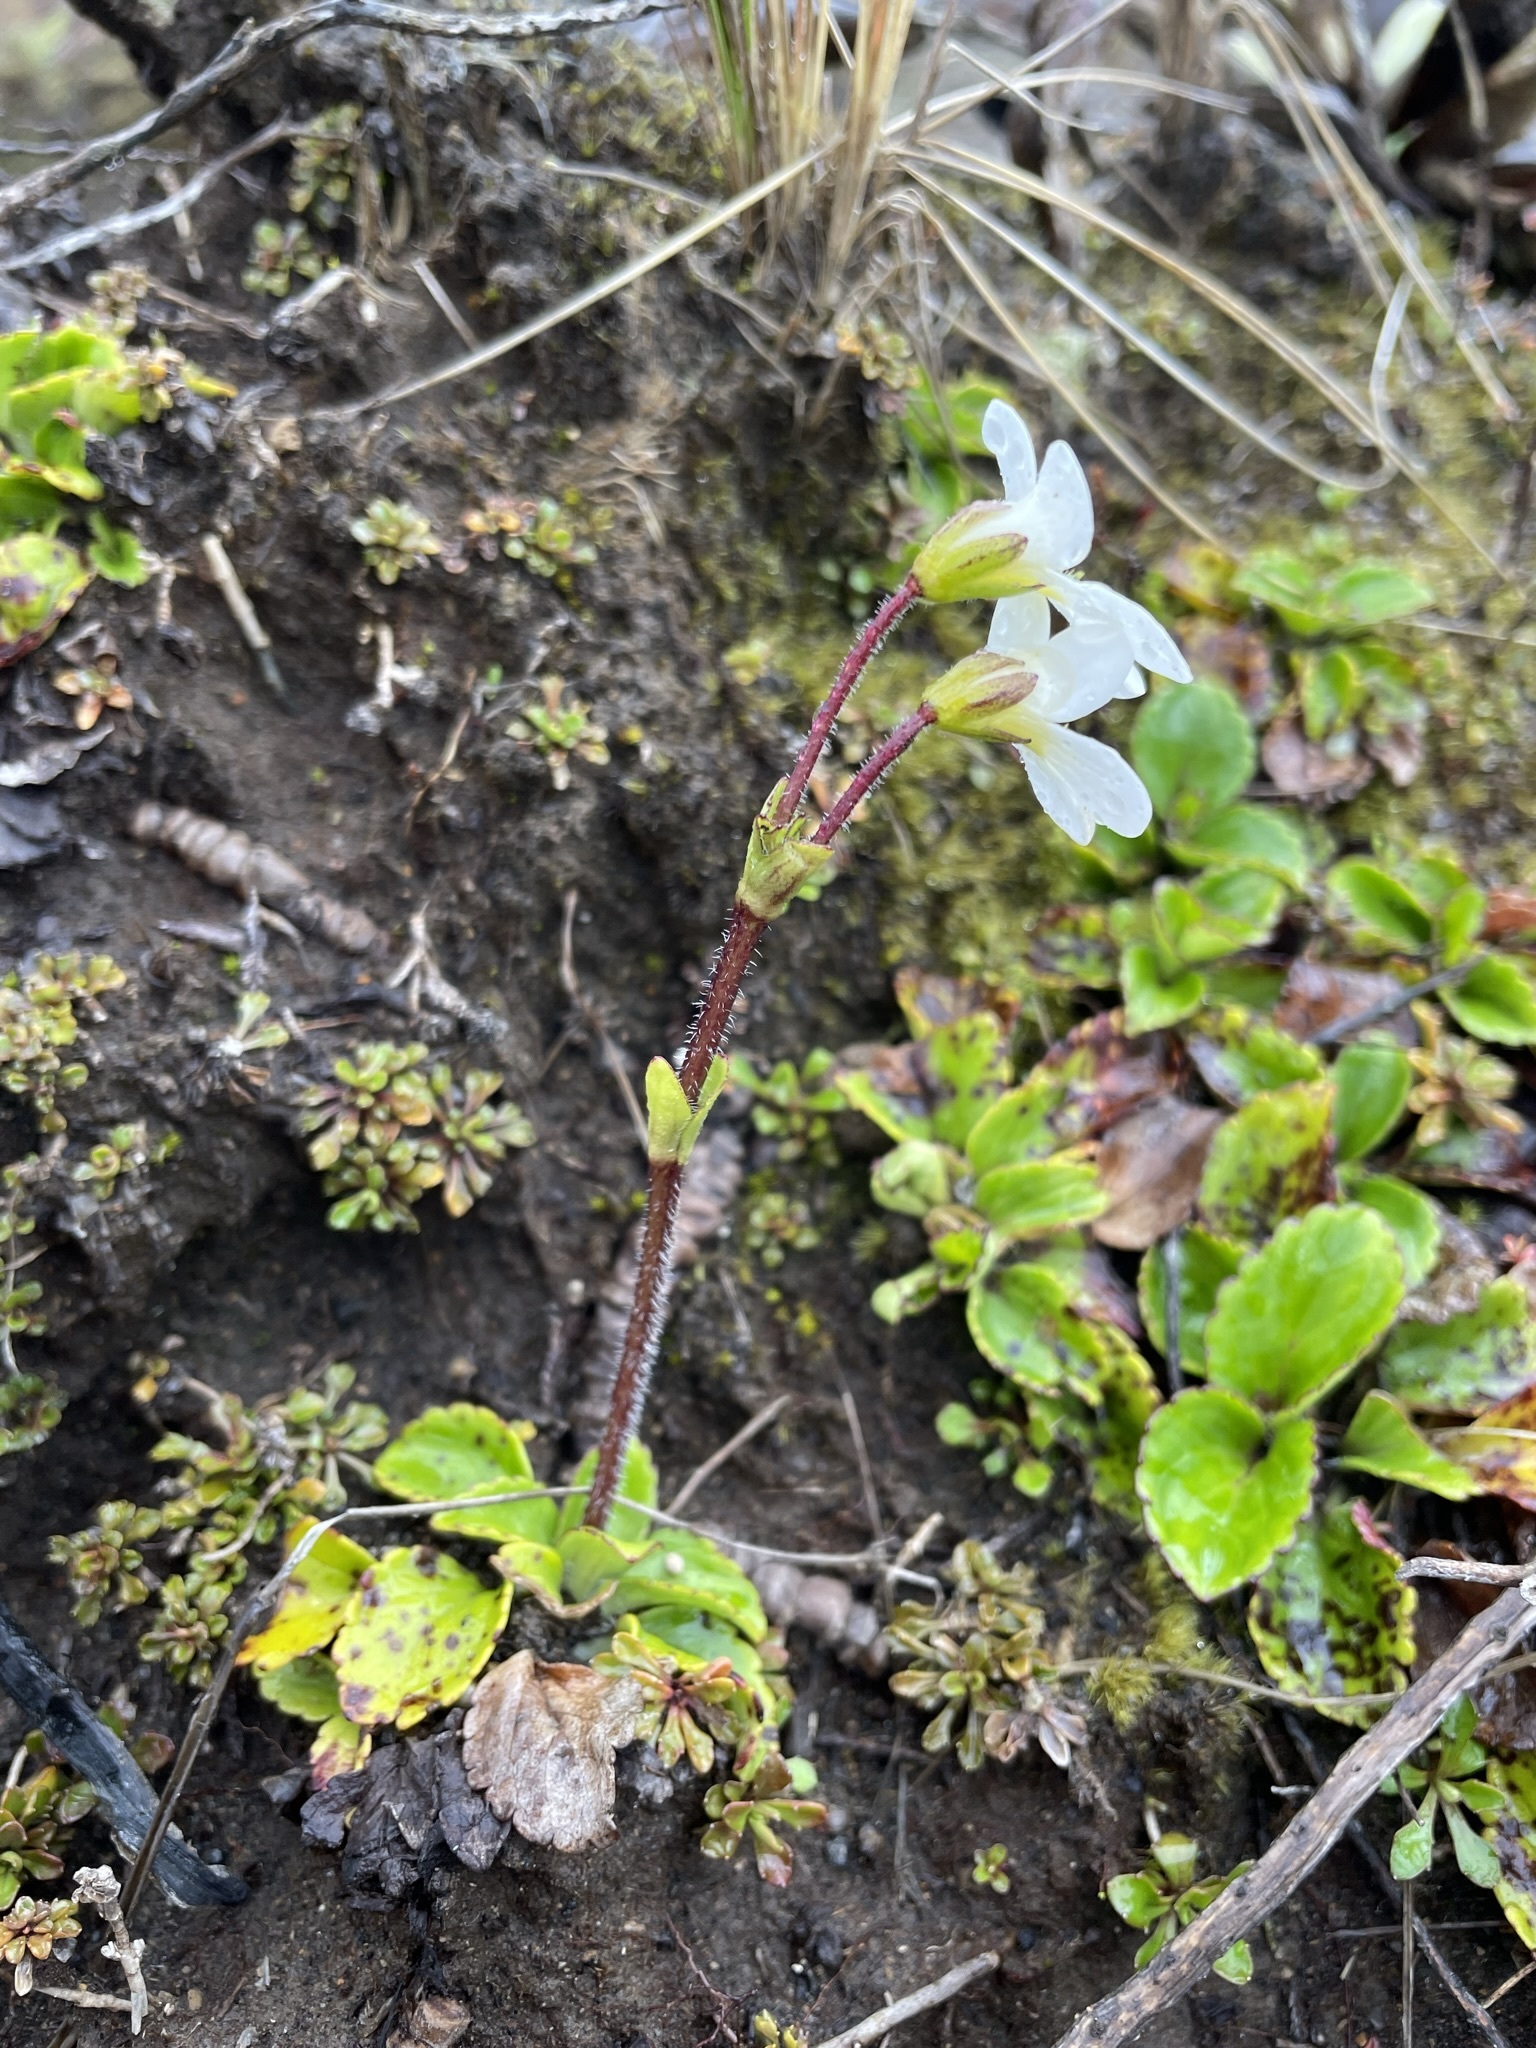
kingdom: Plantae
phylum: Tracheophyta
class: Magnoliopsida
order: Lamiales
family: Plantaginaceae
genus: Ourisia
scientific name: Ourisia vulcanica
